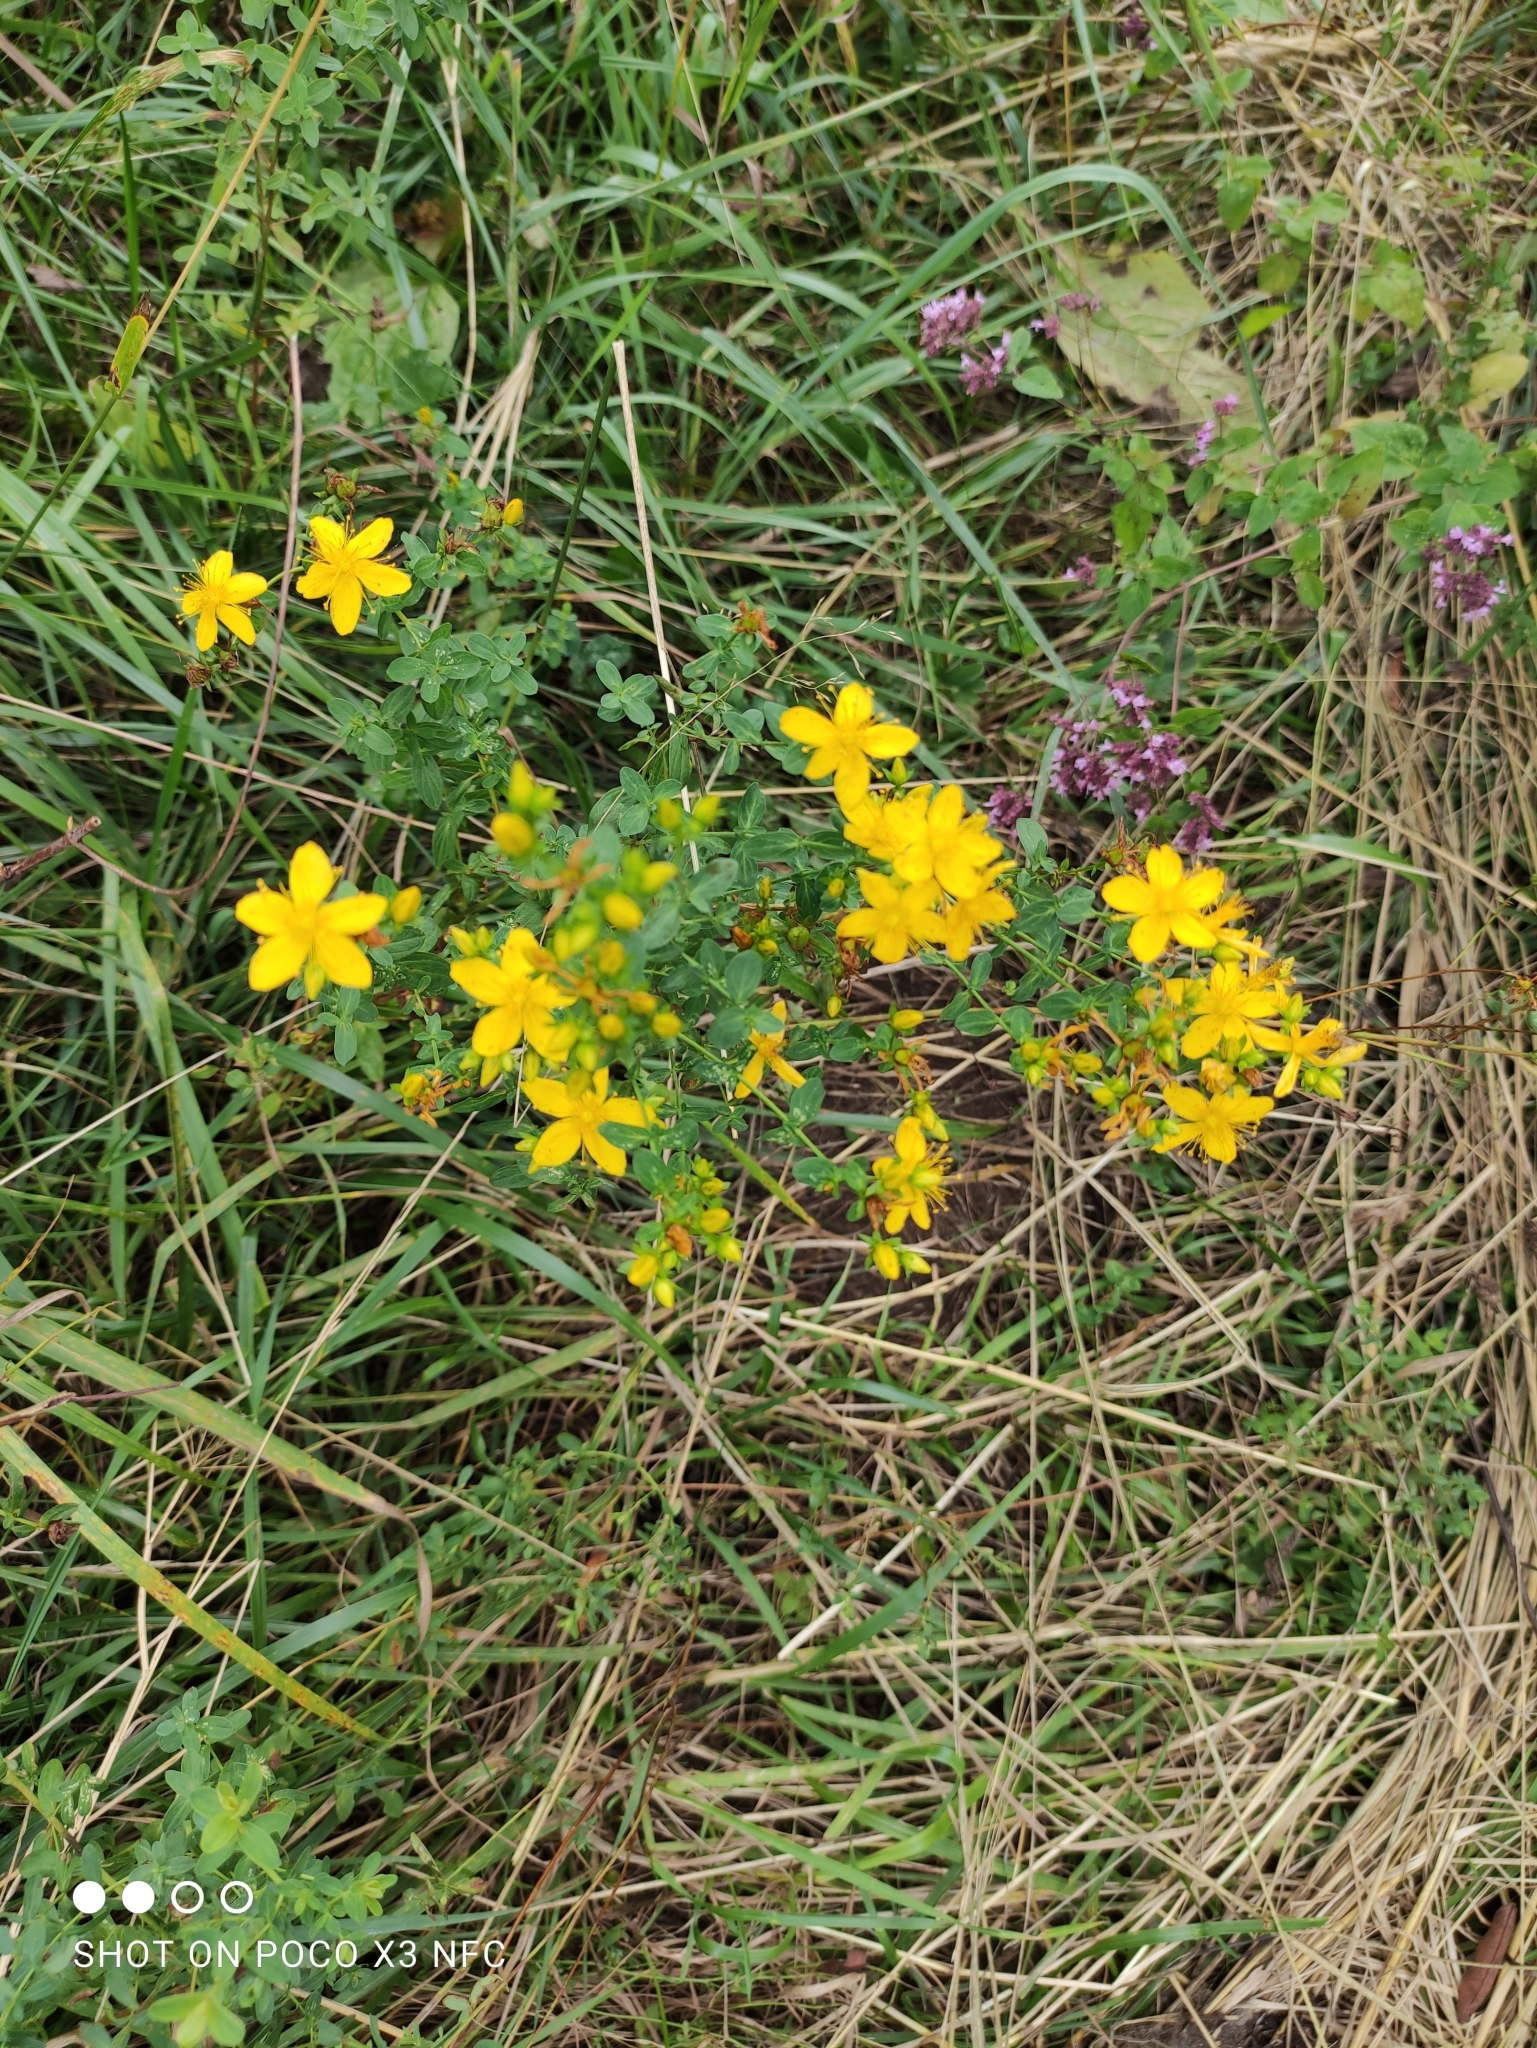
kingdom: Plantae
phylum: Tracheophyta
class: Magnoliopsida
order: Malpighiales
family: Hypericaceae
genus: Hypericum
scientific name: Hypericum perforatum
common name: Common st. johnswort
